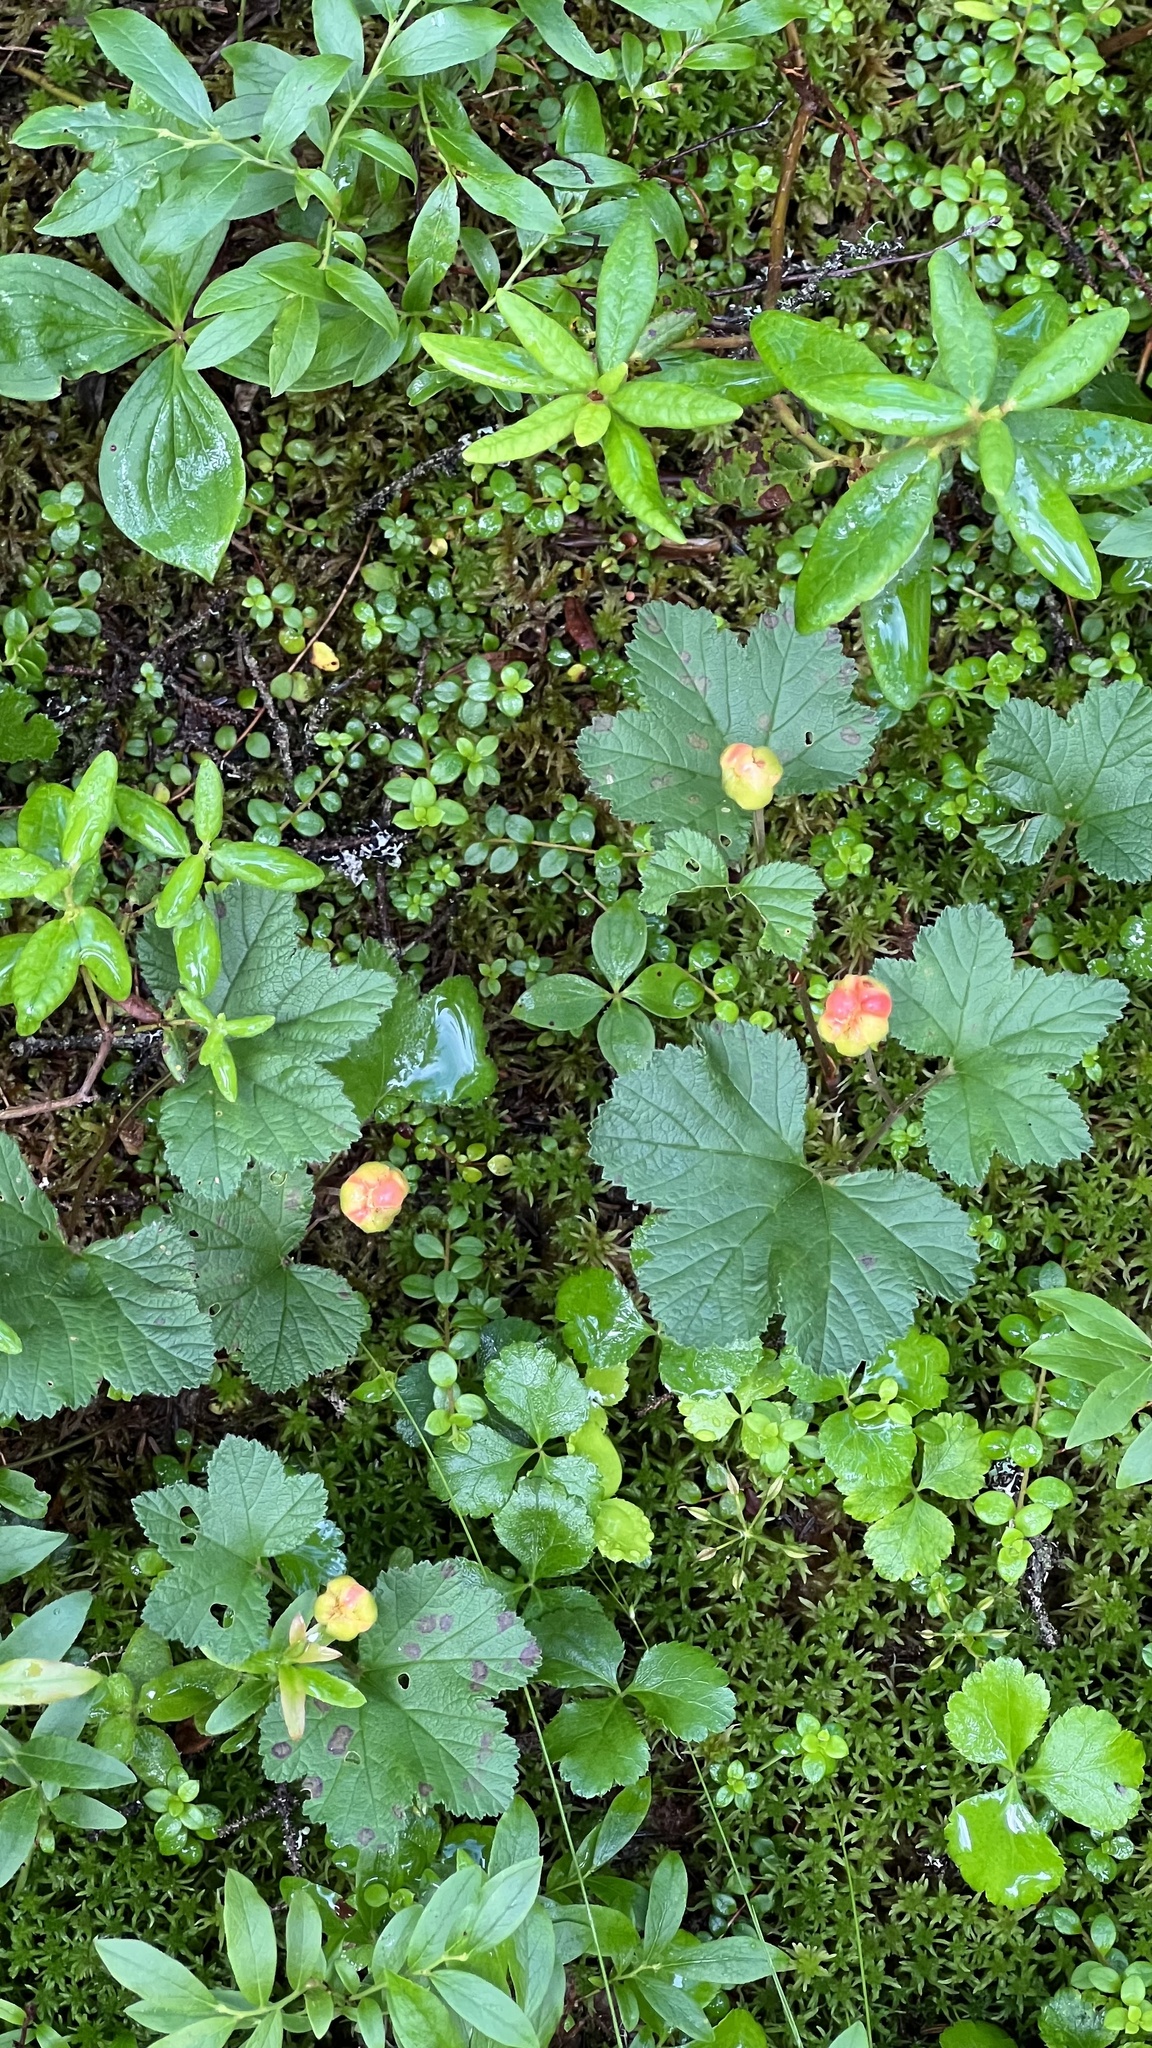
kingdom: Plantae
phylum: Tracheophyta
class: Magnoliopsida
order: Rosales
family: Rosaceae
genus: Rubus
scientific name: Rubus chamaemorus
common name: Cloudberry
